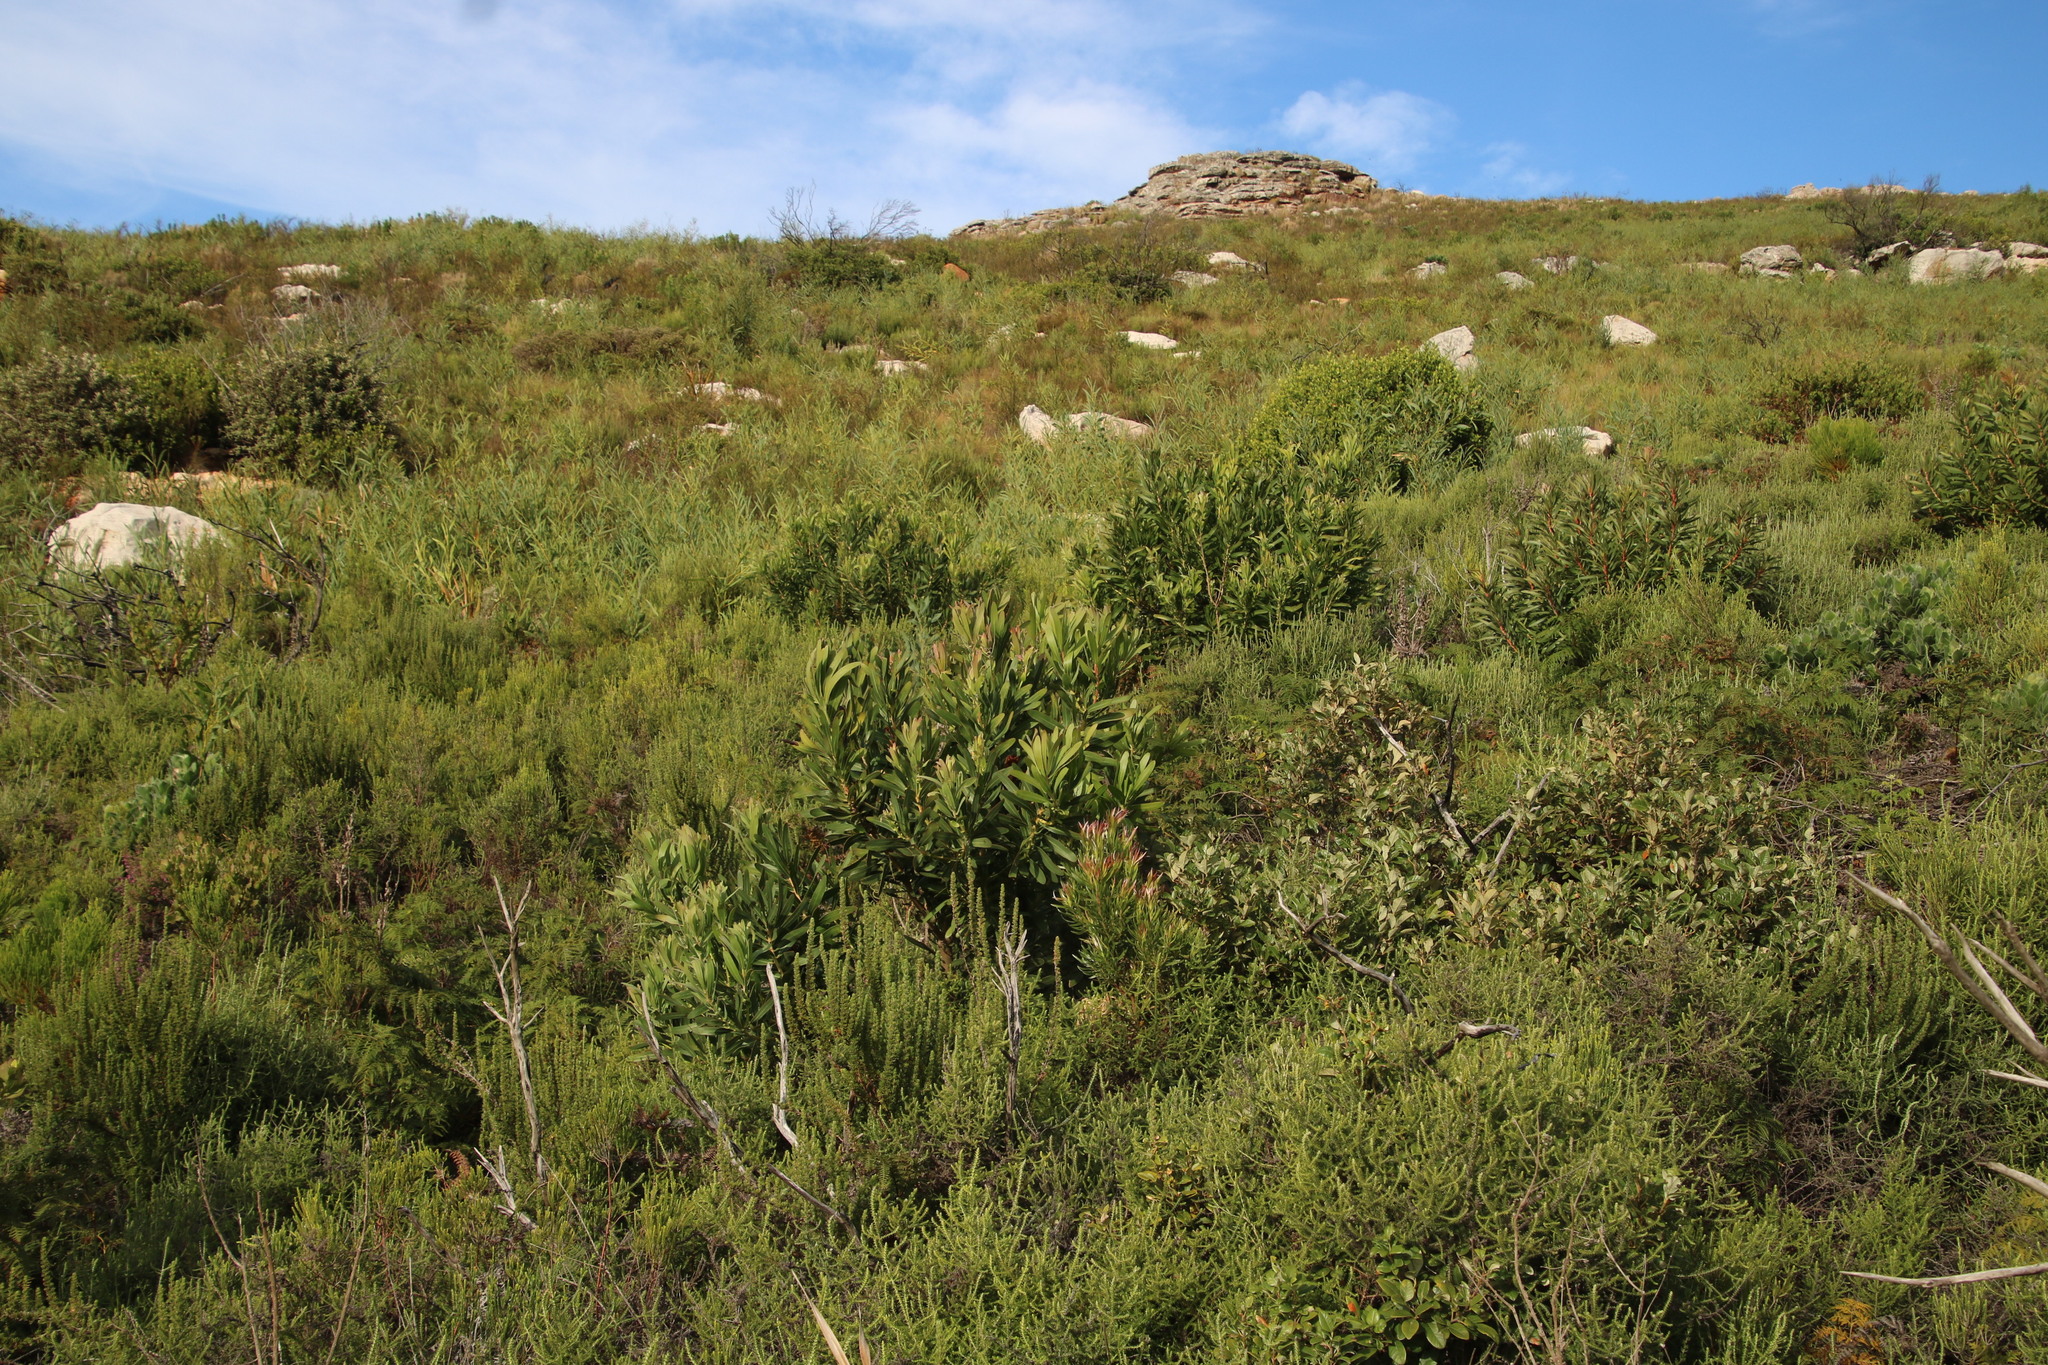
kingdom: Plantae
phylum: Tracheophyta
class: Magnoliopsida
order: Proteales
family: Proteaceae
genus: Protea
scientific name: Protea lepidocarpodendron
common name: Black-bearded protea
